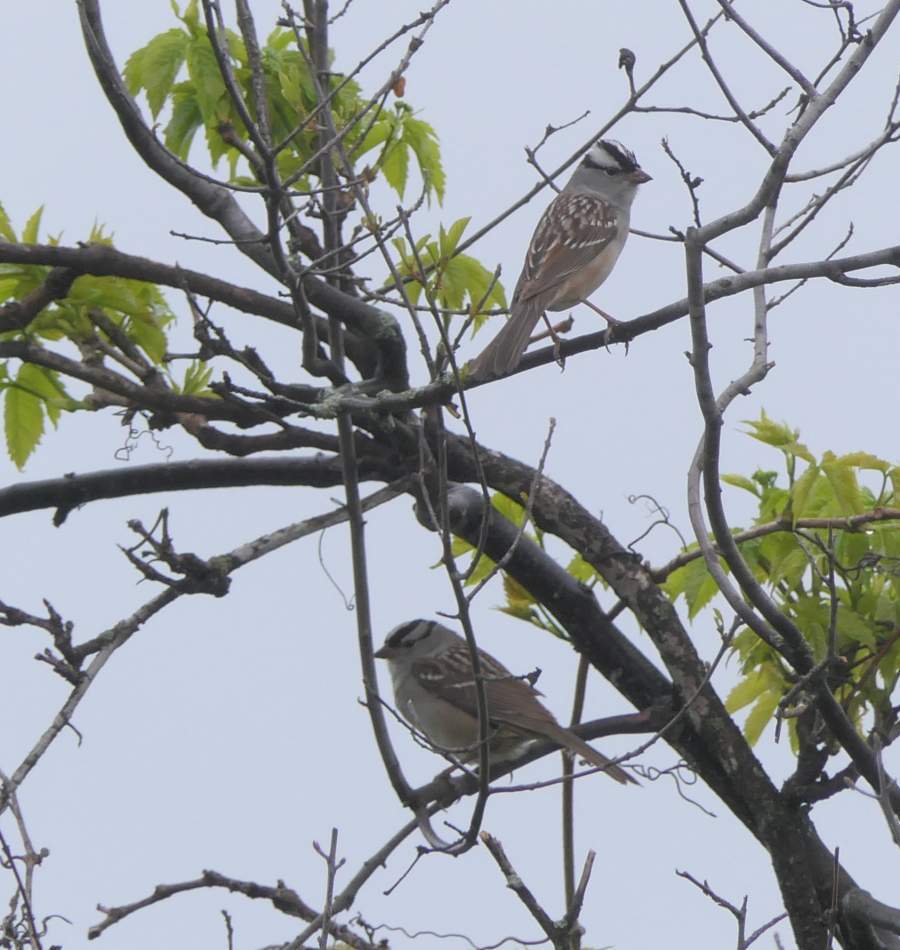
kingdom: Animalia
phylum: Chordata
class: Aves
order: Passeriformes
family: Passerellidae
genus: Zonotrichia
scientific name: Zonotrichia leucophrys
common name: White-crowned sparrow
